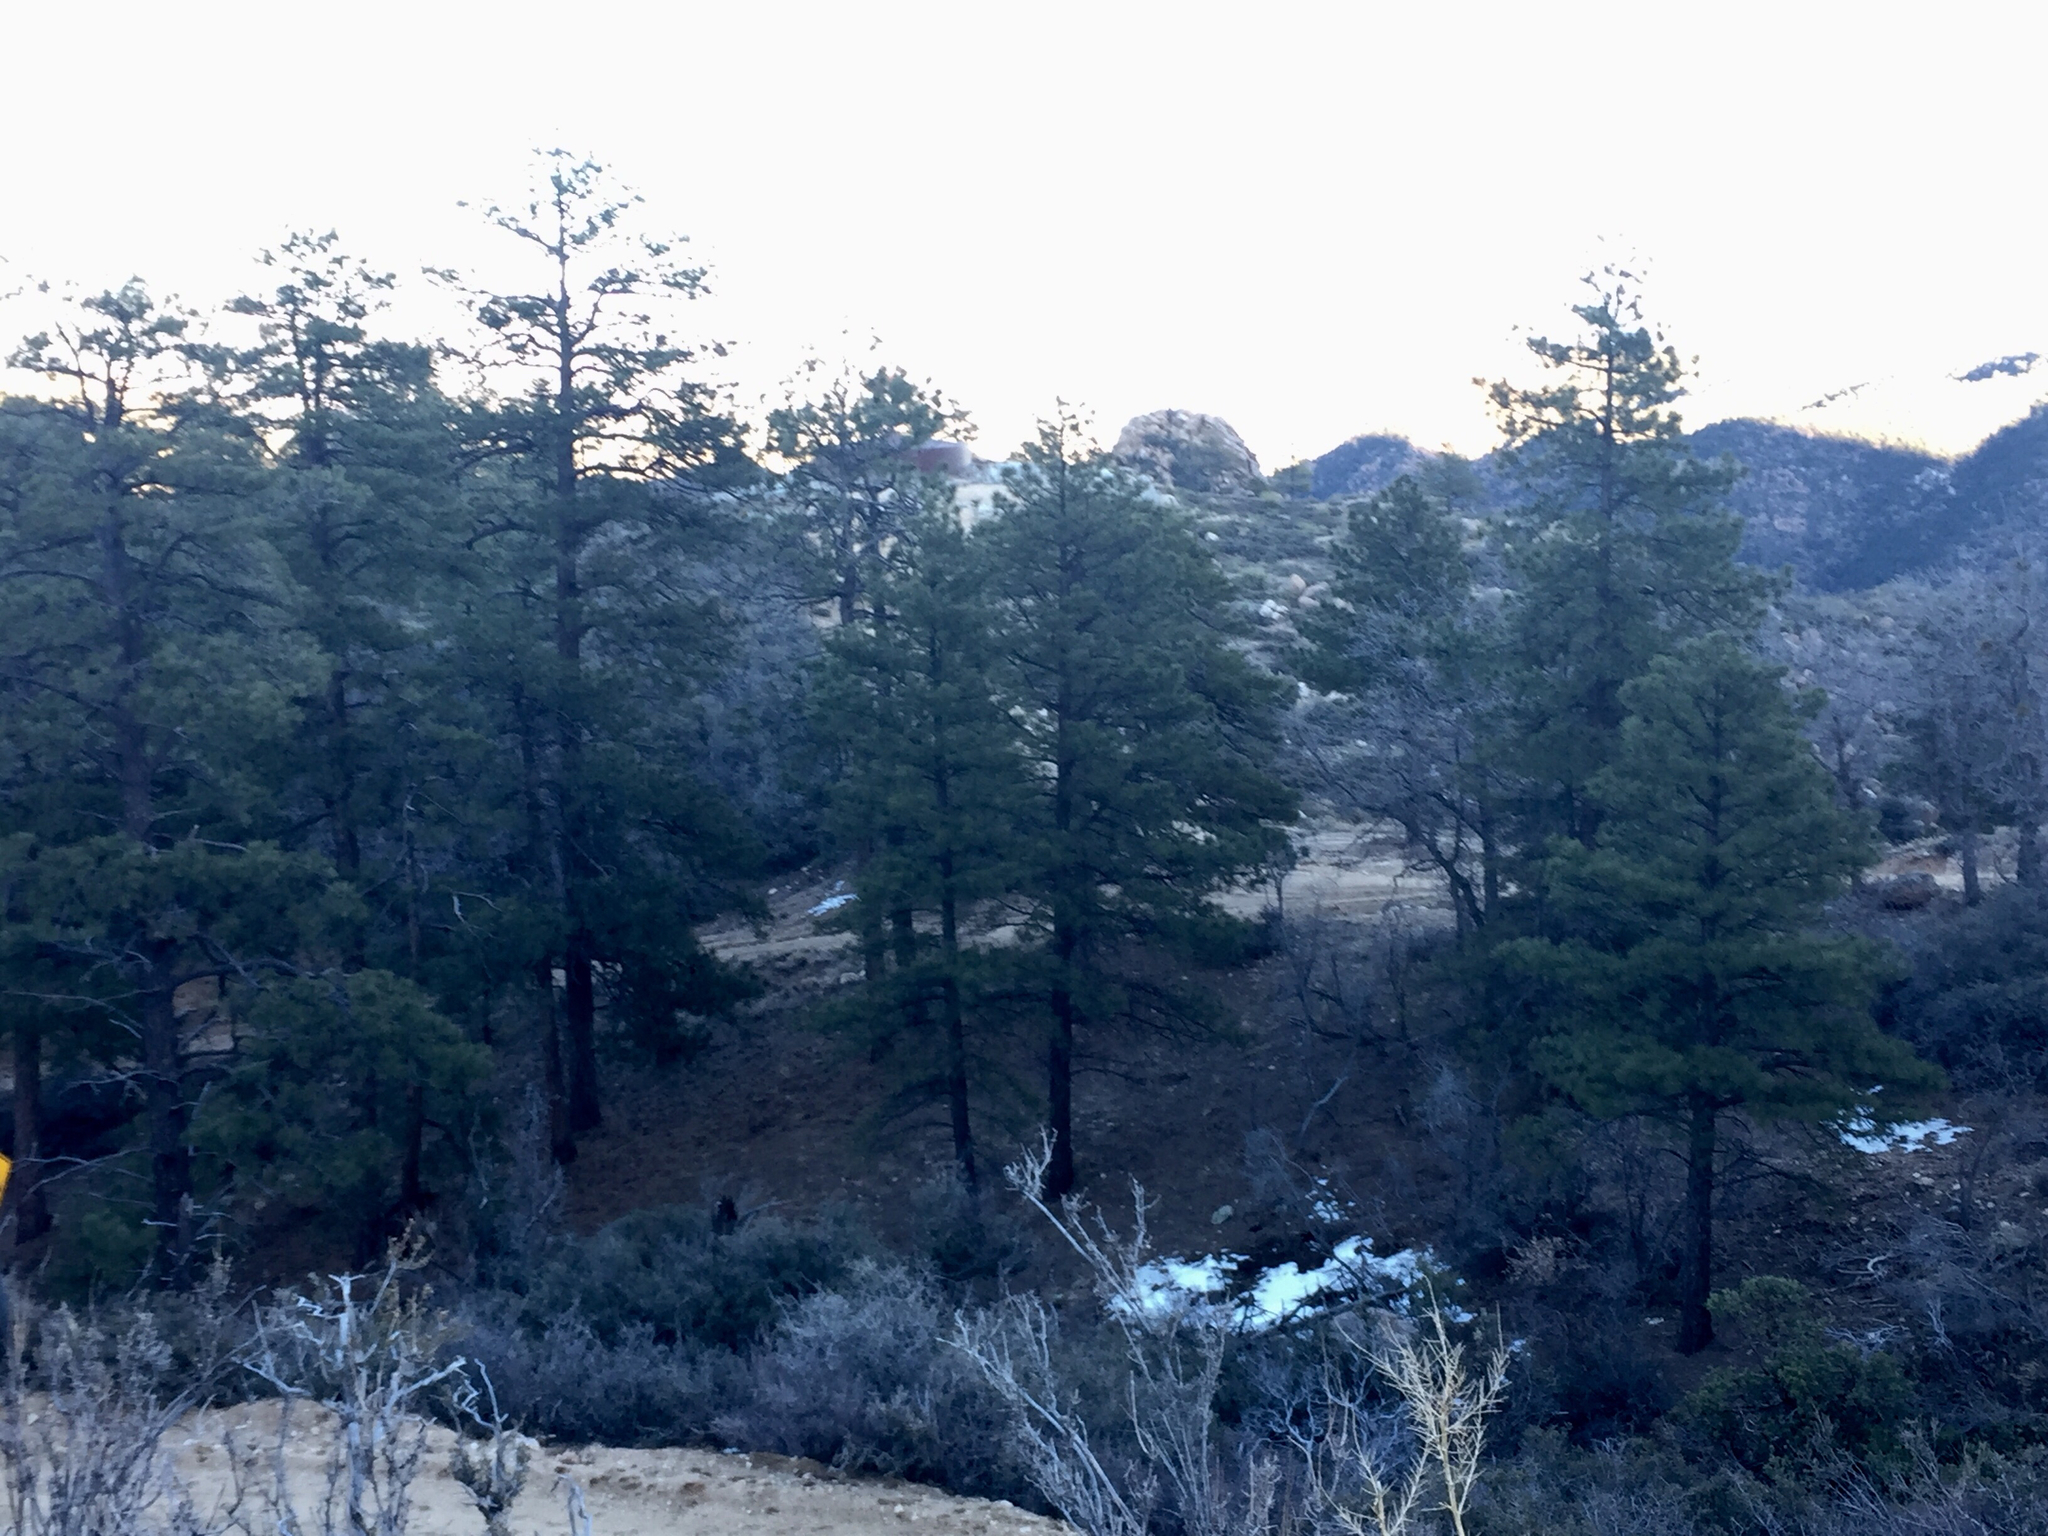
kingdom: Plantae
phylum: Tracheophyta
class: Pinopsida
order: Pinales
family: Pinaceae
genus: Pinus
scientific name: Pinus ponderosa
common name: Western yellow-pine
